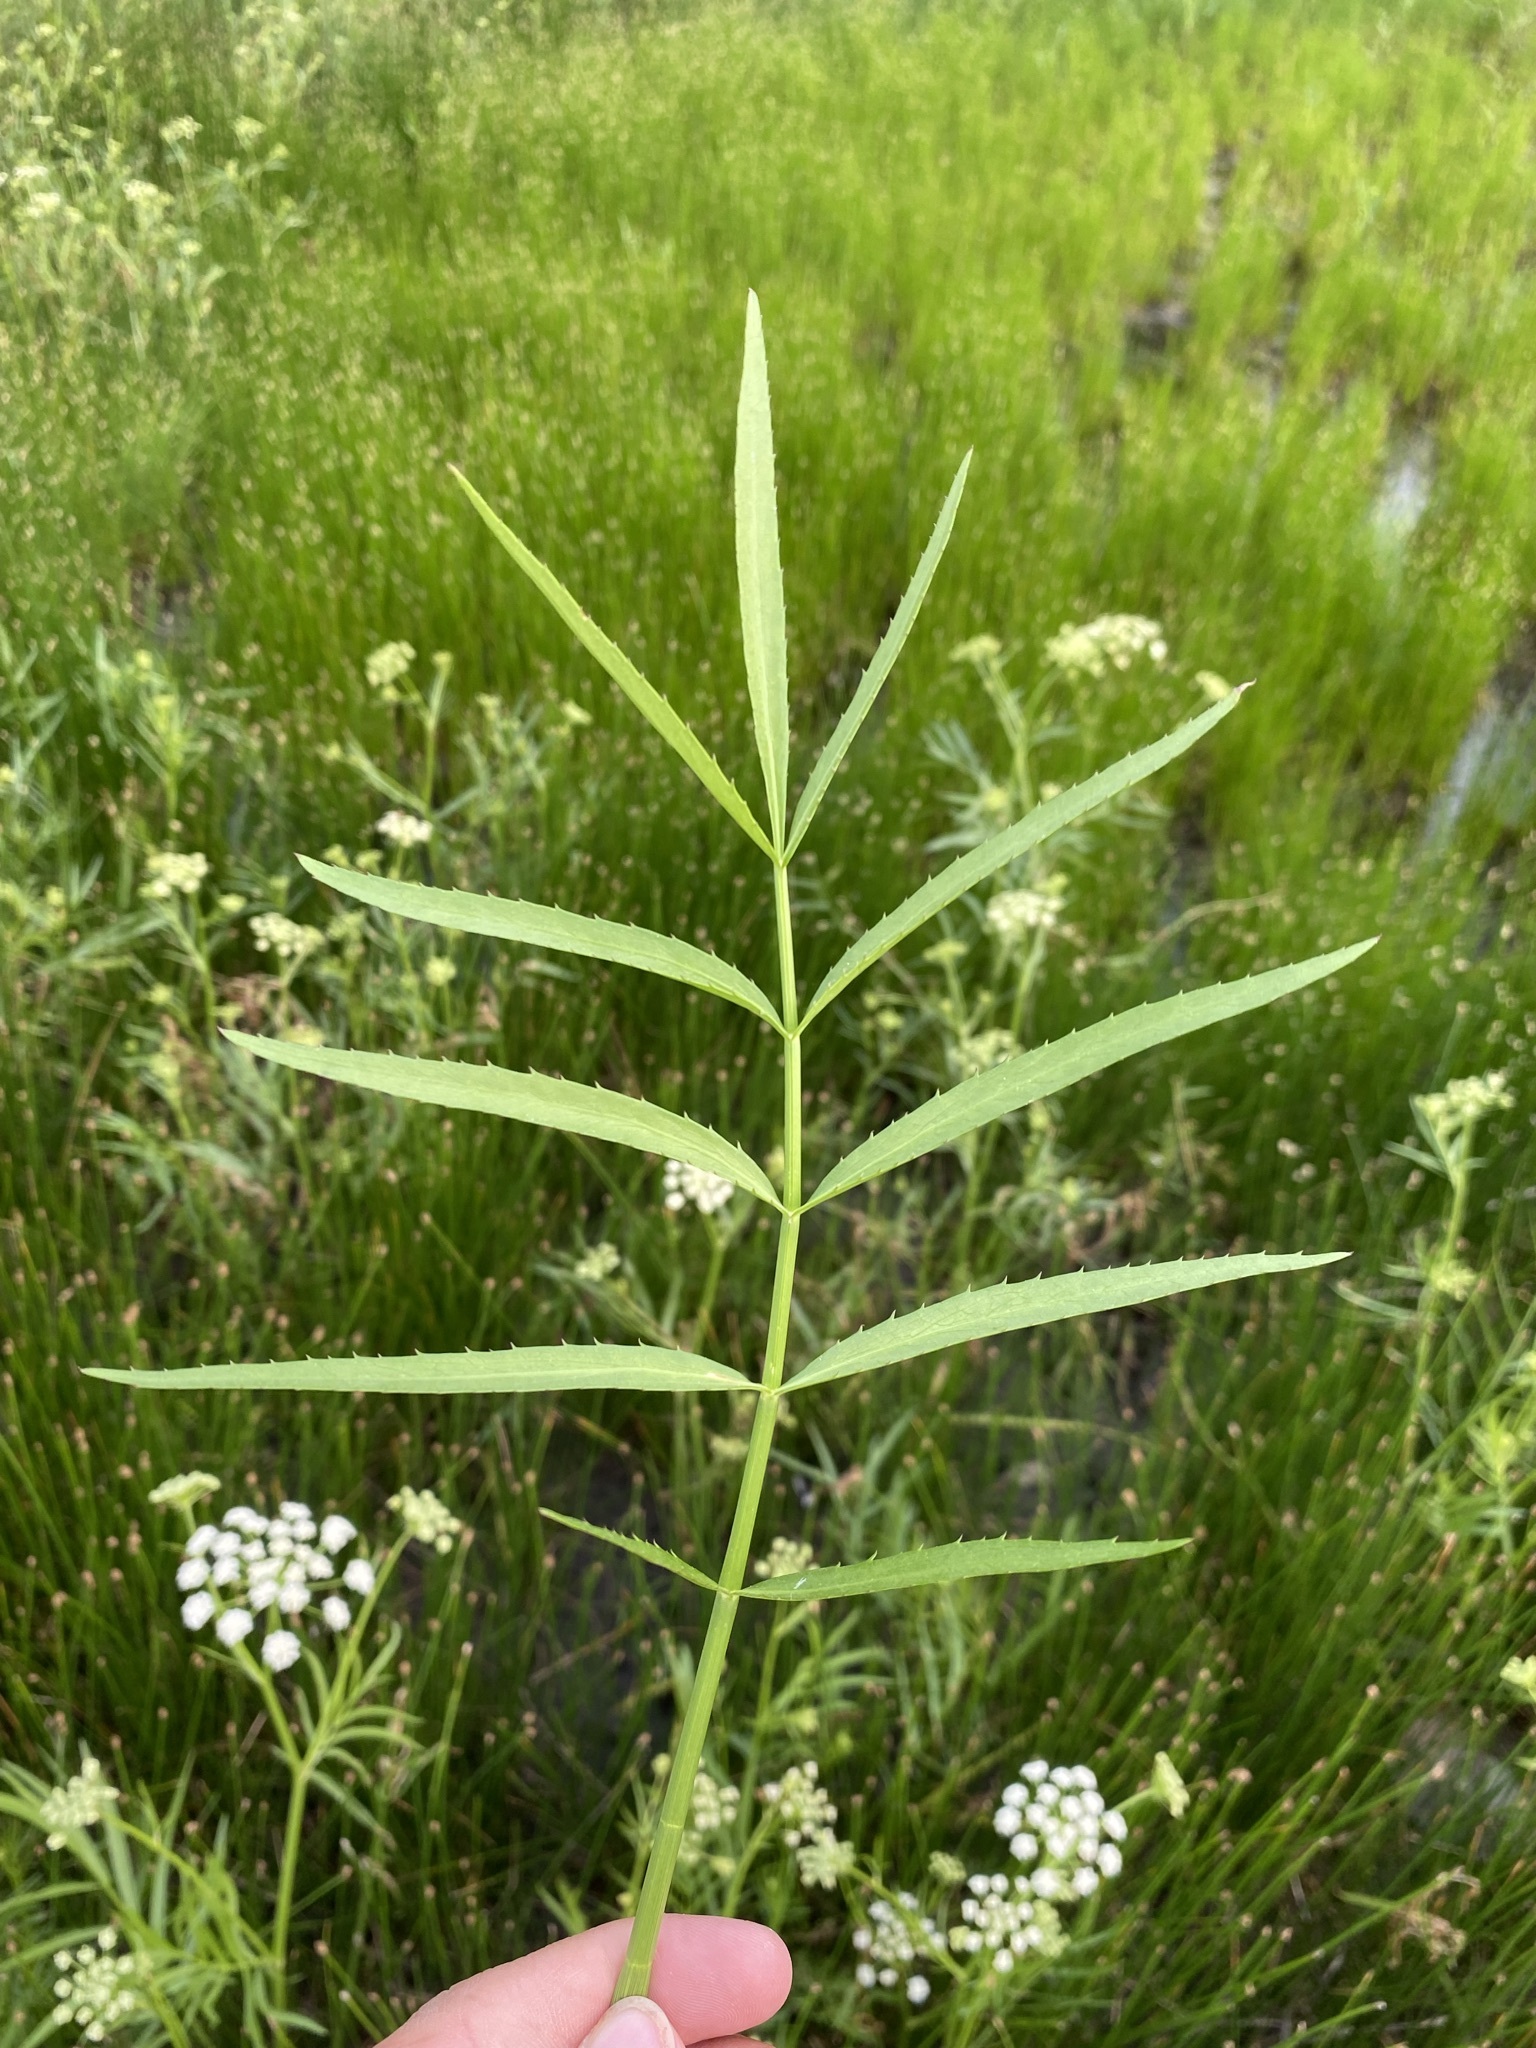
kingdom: Plantae
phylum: Tracheophyta
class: Magnoliopsida
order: Apiales
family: Apiaceae
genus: Sium
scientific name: Sium suave
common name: Hemlock water-parsnip
